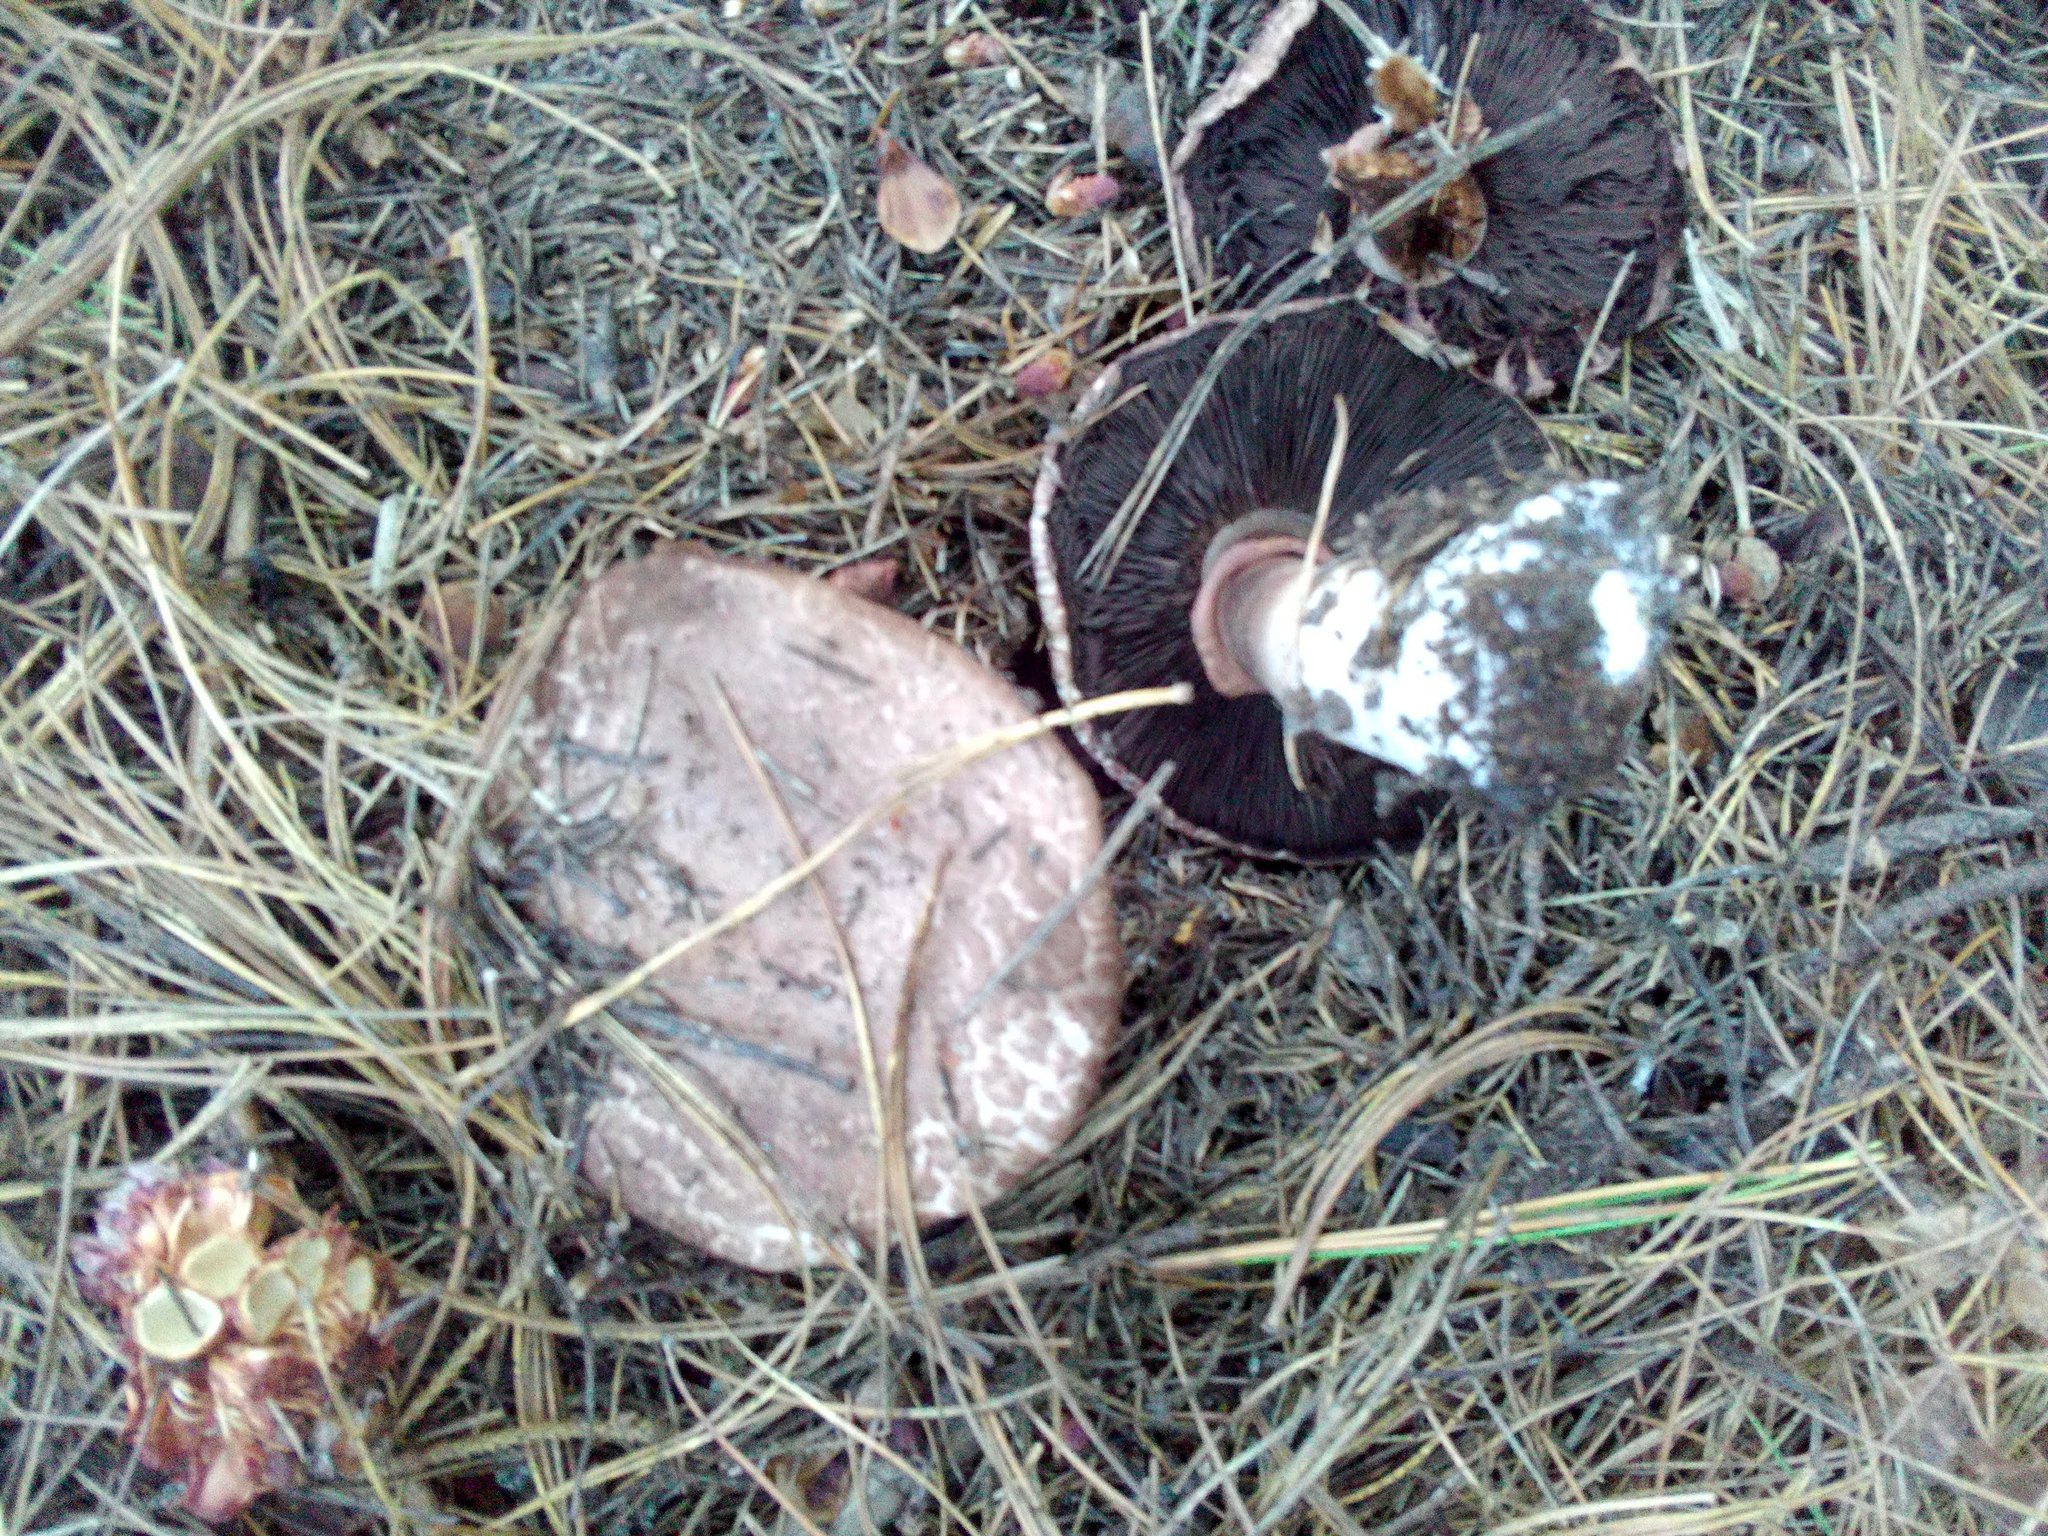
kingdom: Fungi
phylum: Basidiomycota
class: Agaricomycetes
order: Agaricales
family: Agaricaceae
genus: Agaricus
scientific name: Agaricus sylvaticus
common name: Blushing wood mushroom
